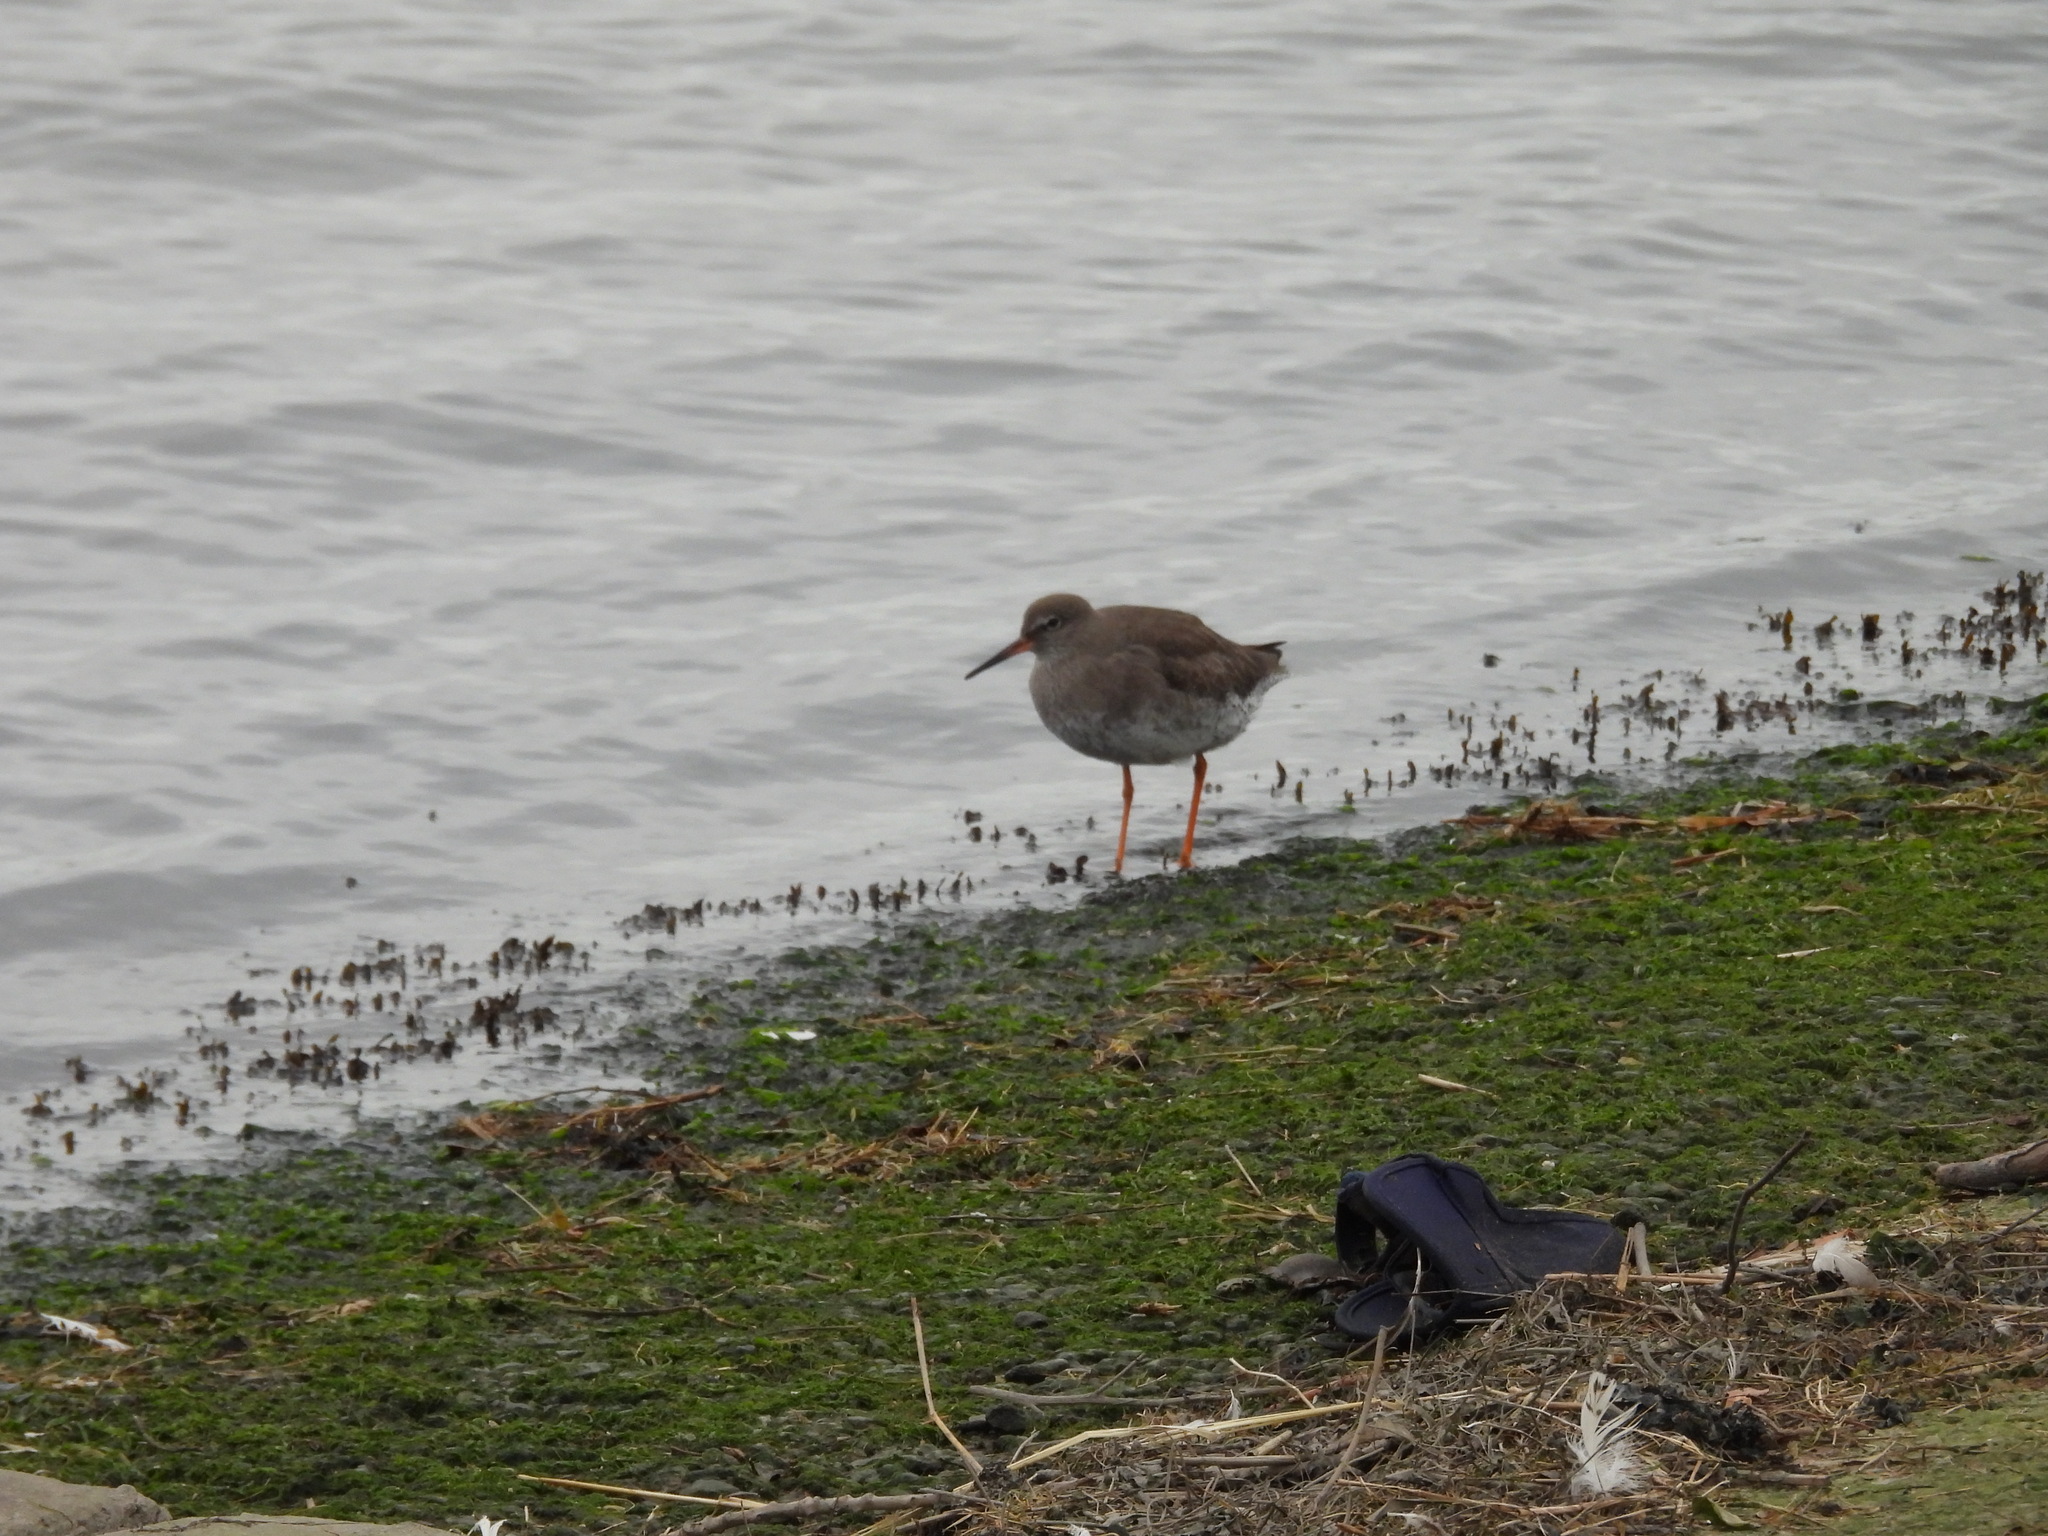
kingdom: Animalia
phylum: Chordata
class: Aves
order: Charadriiformes
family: Scolopacidae
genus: Tringa
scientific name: Tringa totanus
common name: Common redshank
